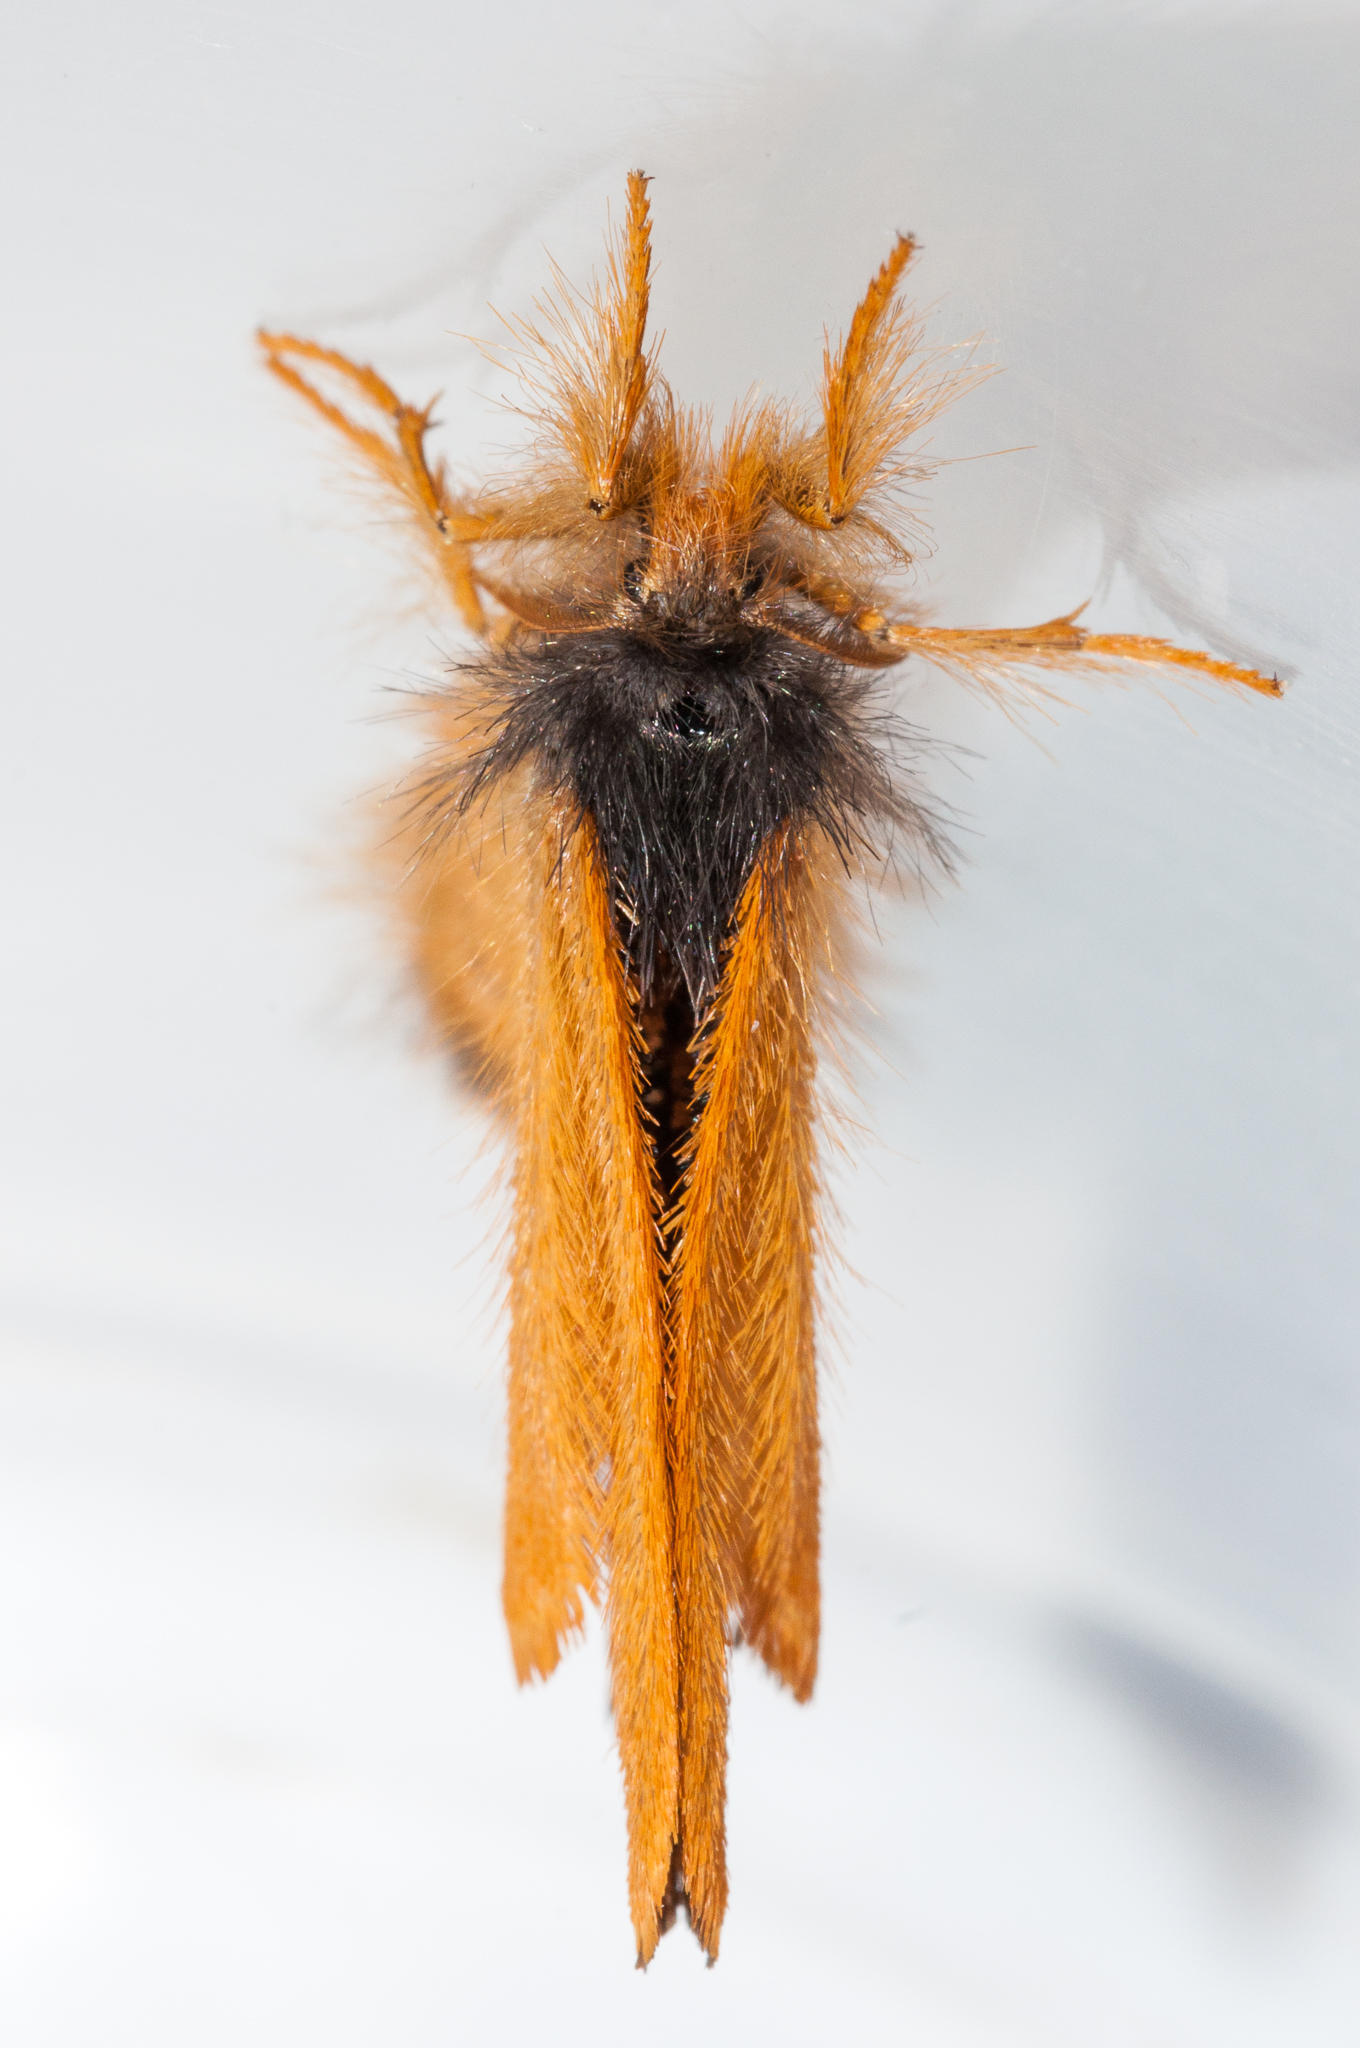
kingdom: Animalia
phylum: Arthropoda
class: Insecta
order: Lepidoptera
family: Erebidae
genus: Euproctis
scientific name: Euproctis
